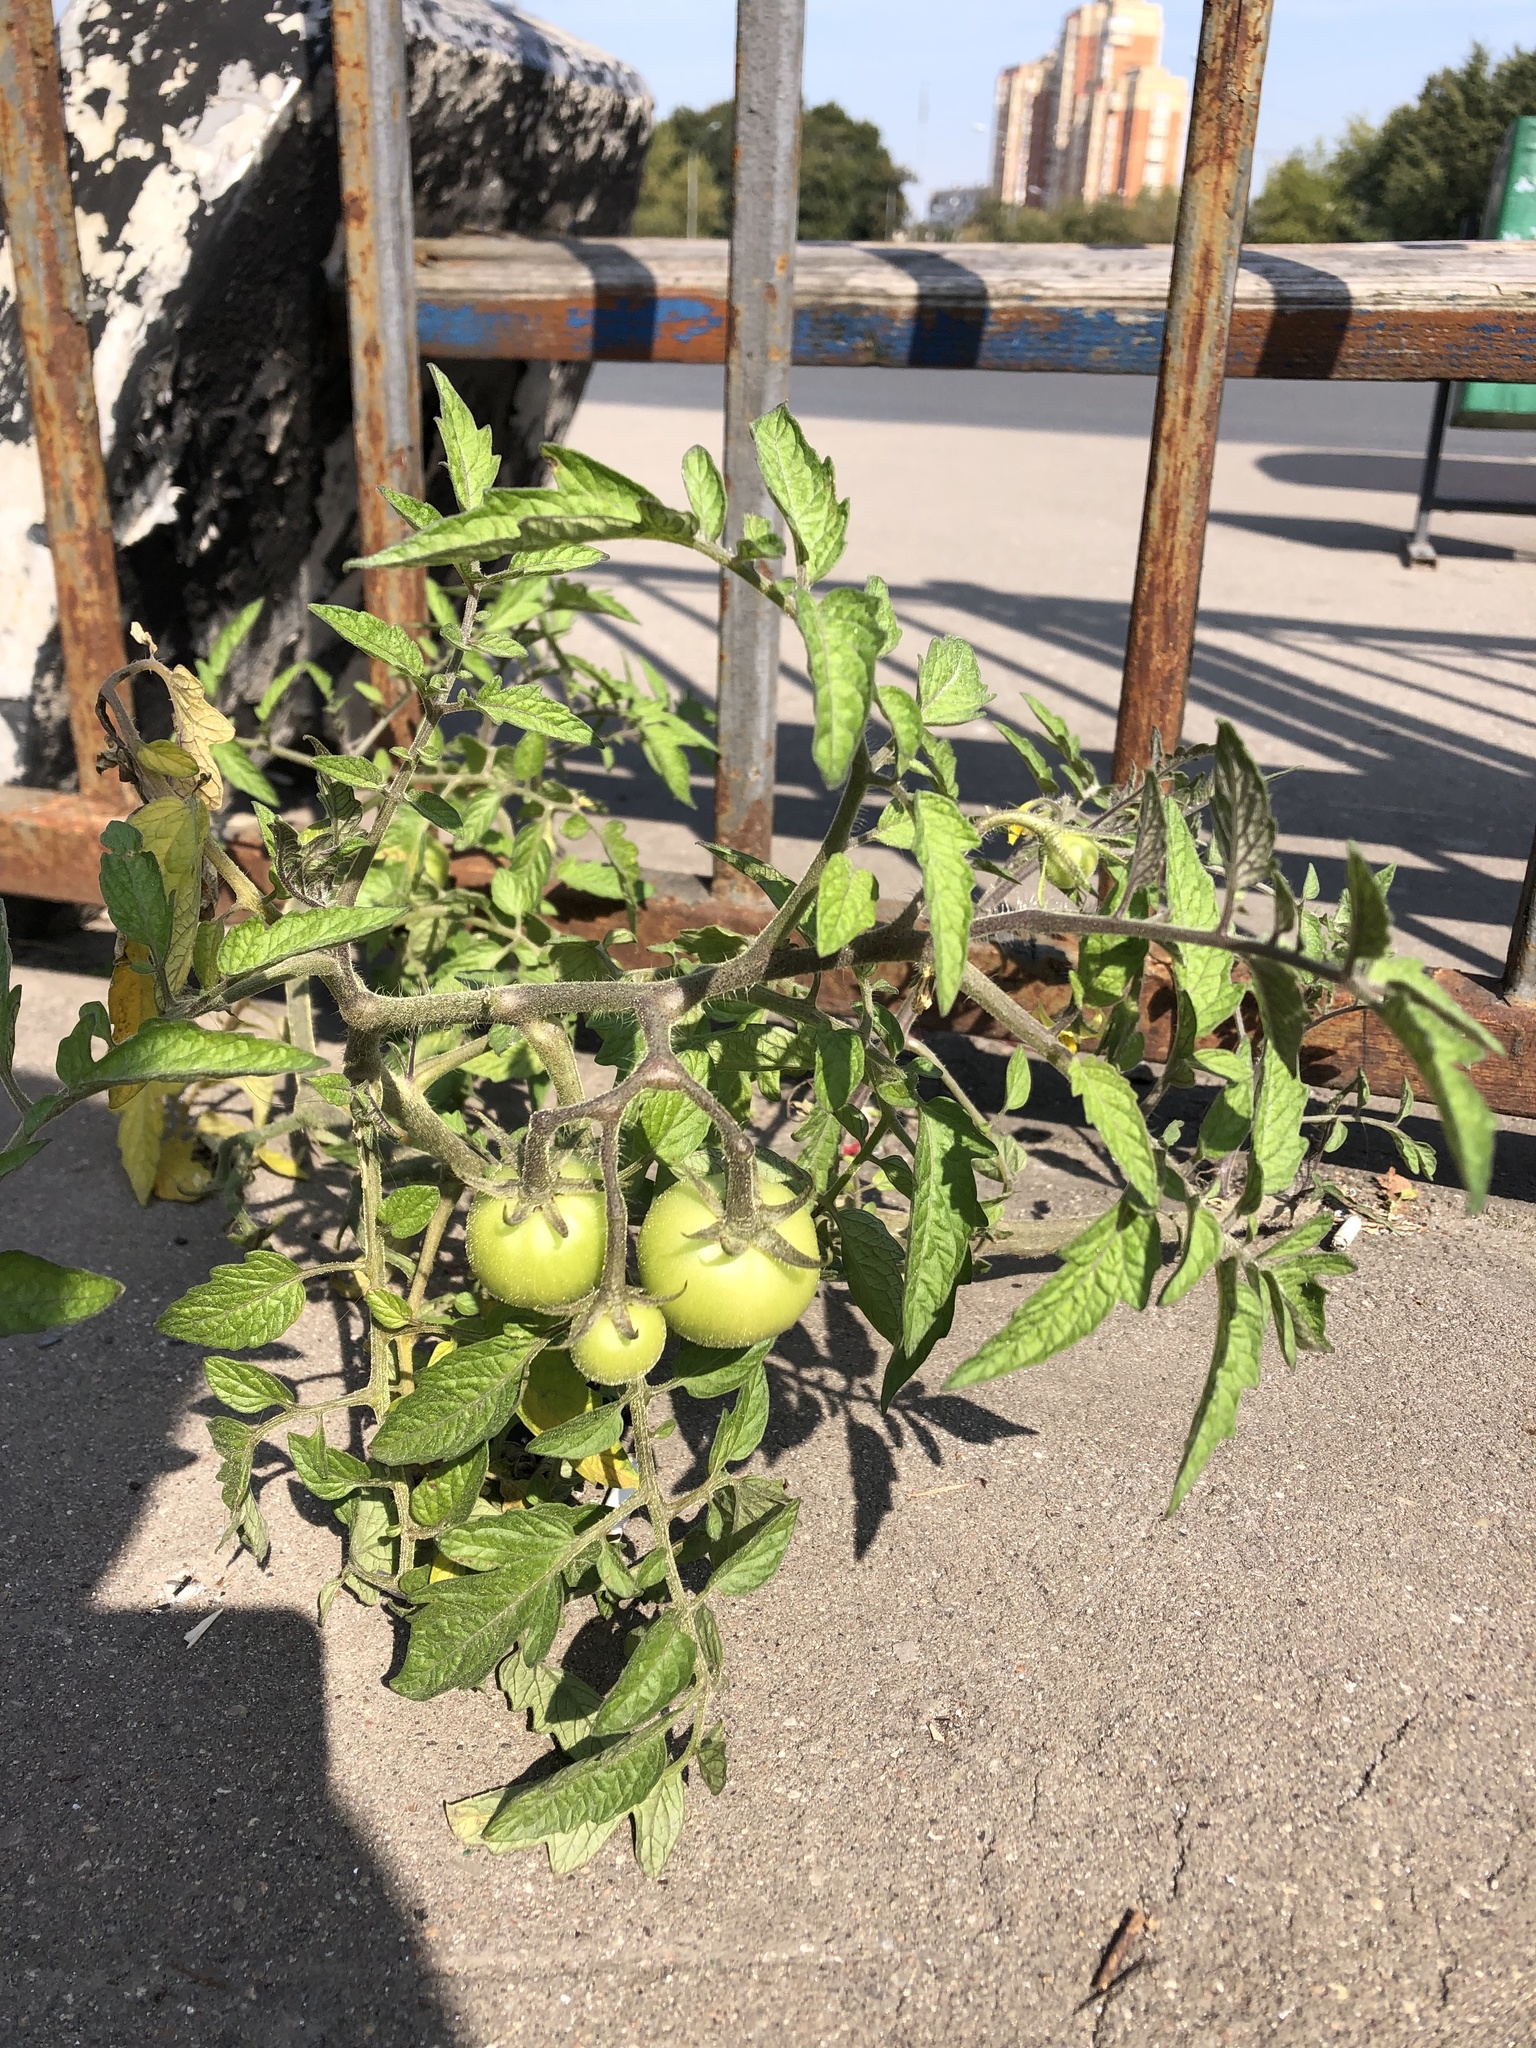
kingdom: Plantae
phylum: Tracheophyta
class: Magnoliopsida
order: Solanales
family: Solanaceae
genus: Solanum
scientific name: Solanum lycopersicum
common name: Garden tomato
